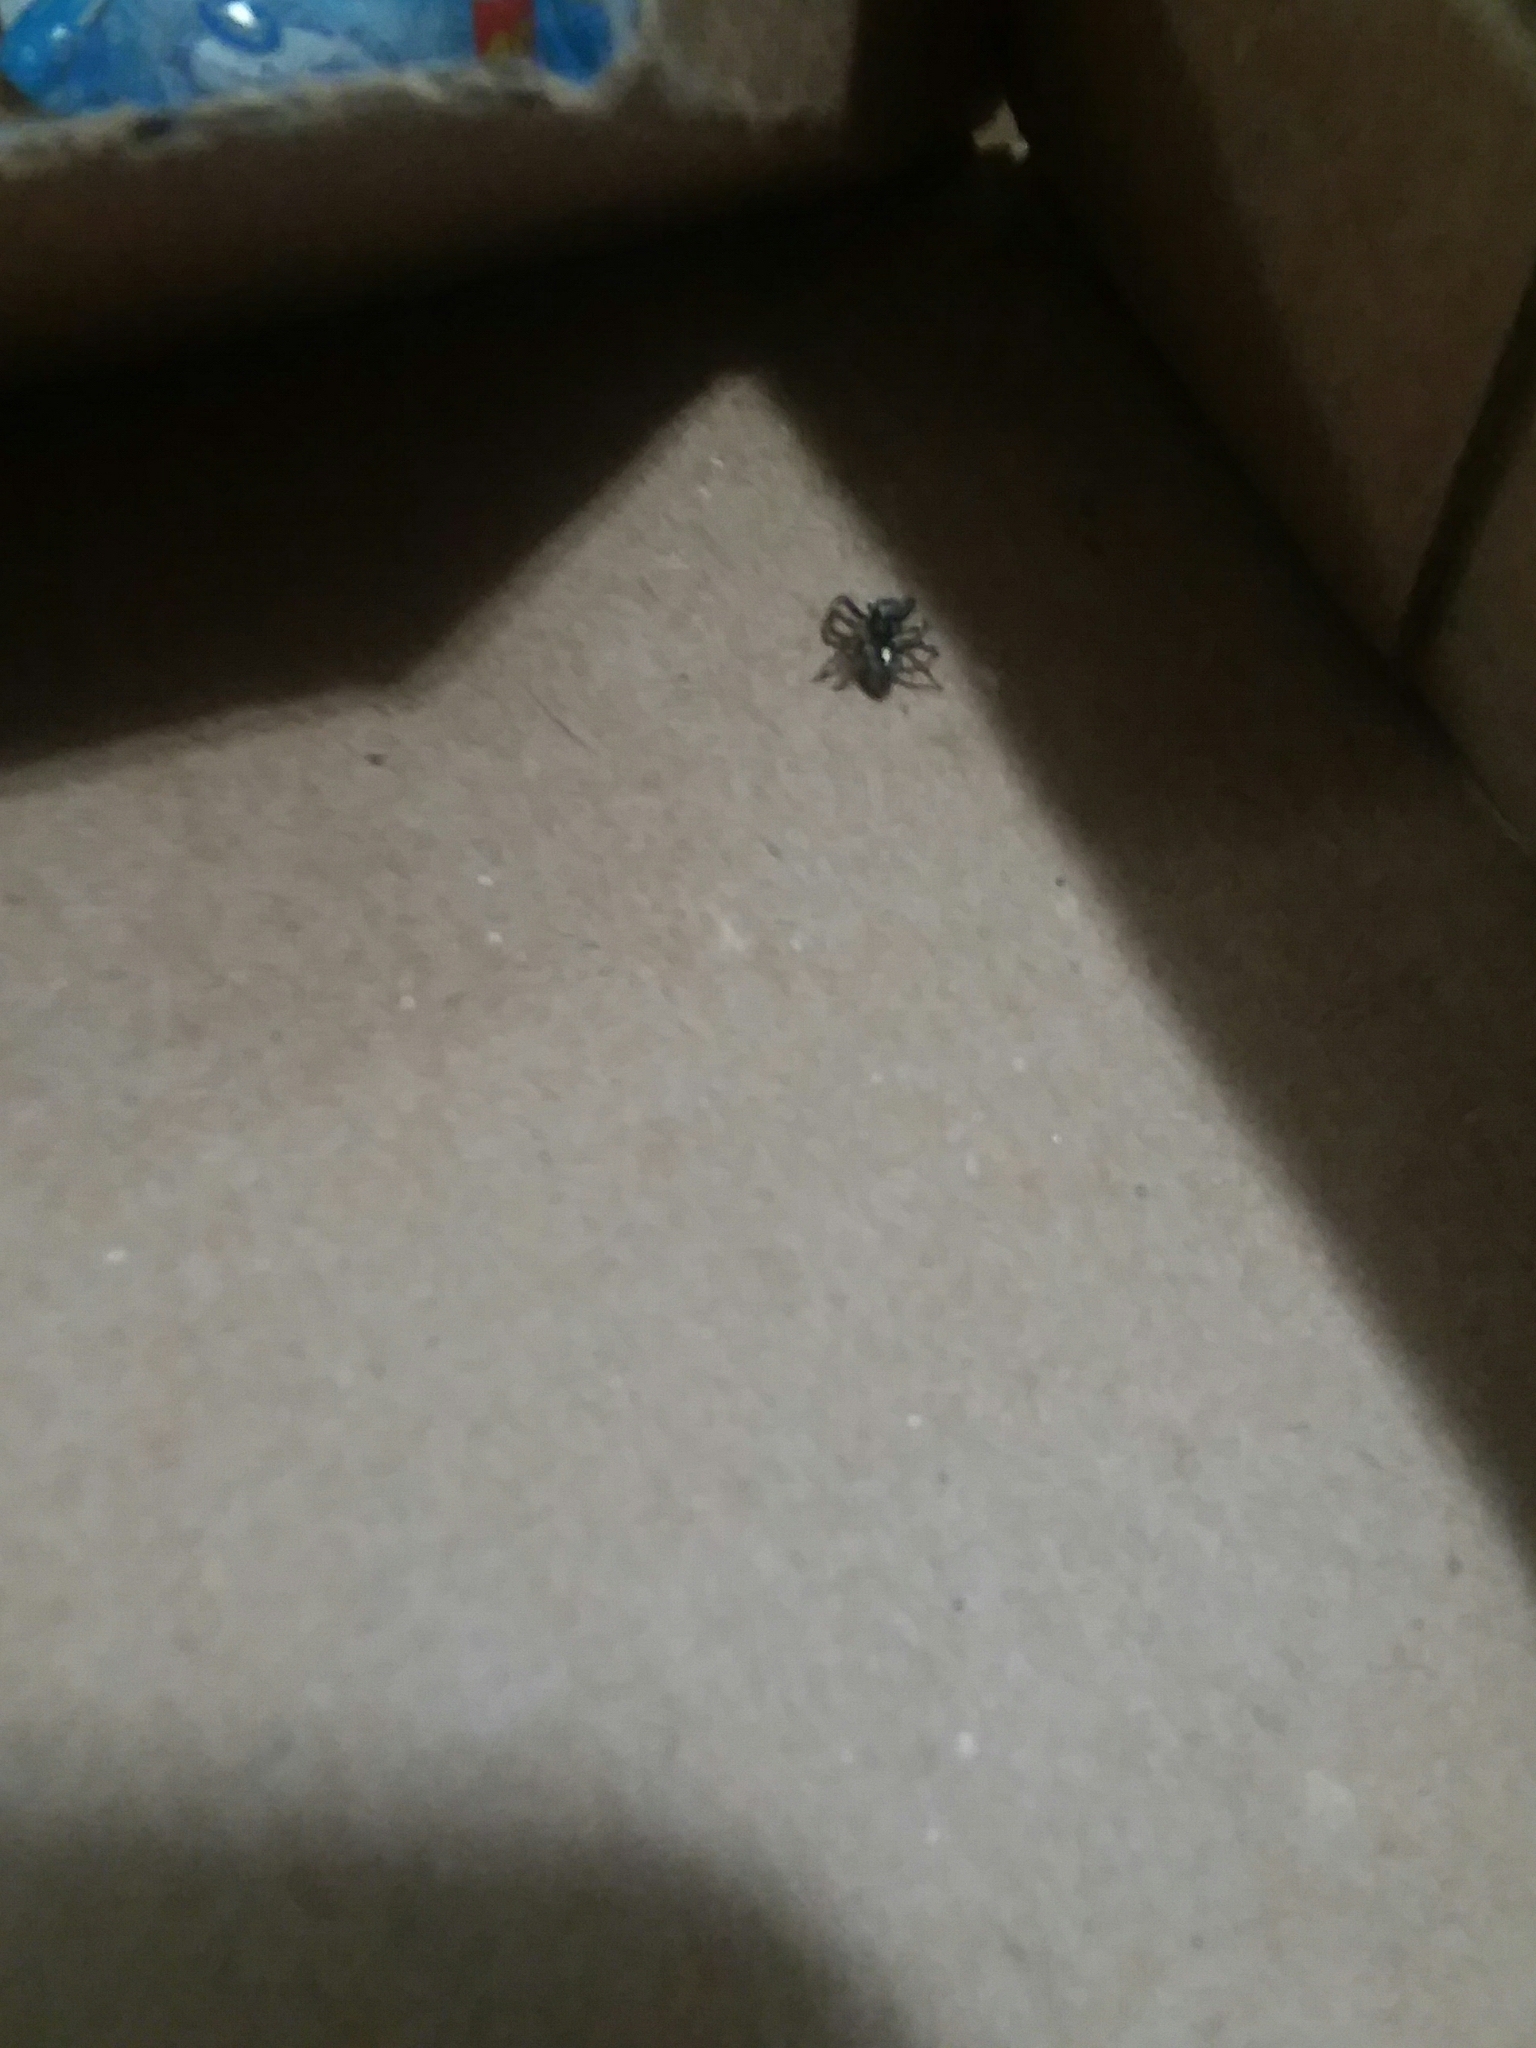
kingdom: Animalia
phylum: Arthropoda
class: Arachnida
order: Araneae
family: Salticidae
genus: Anasaitis
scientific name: Anasaitis canosa
